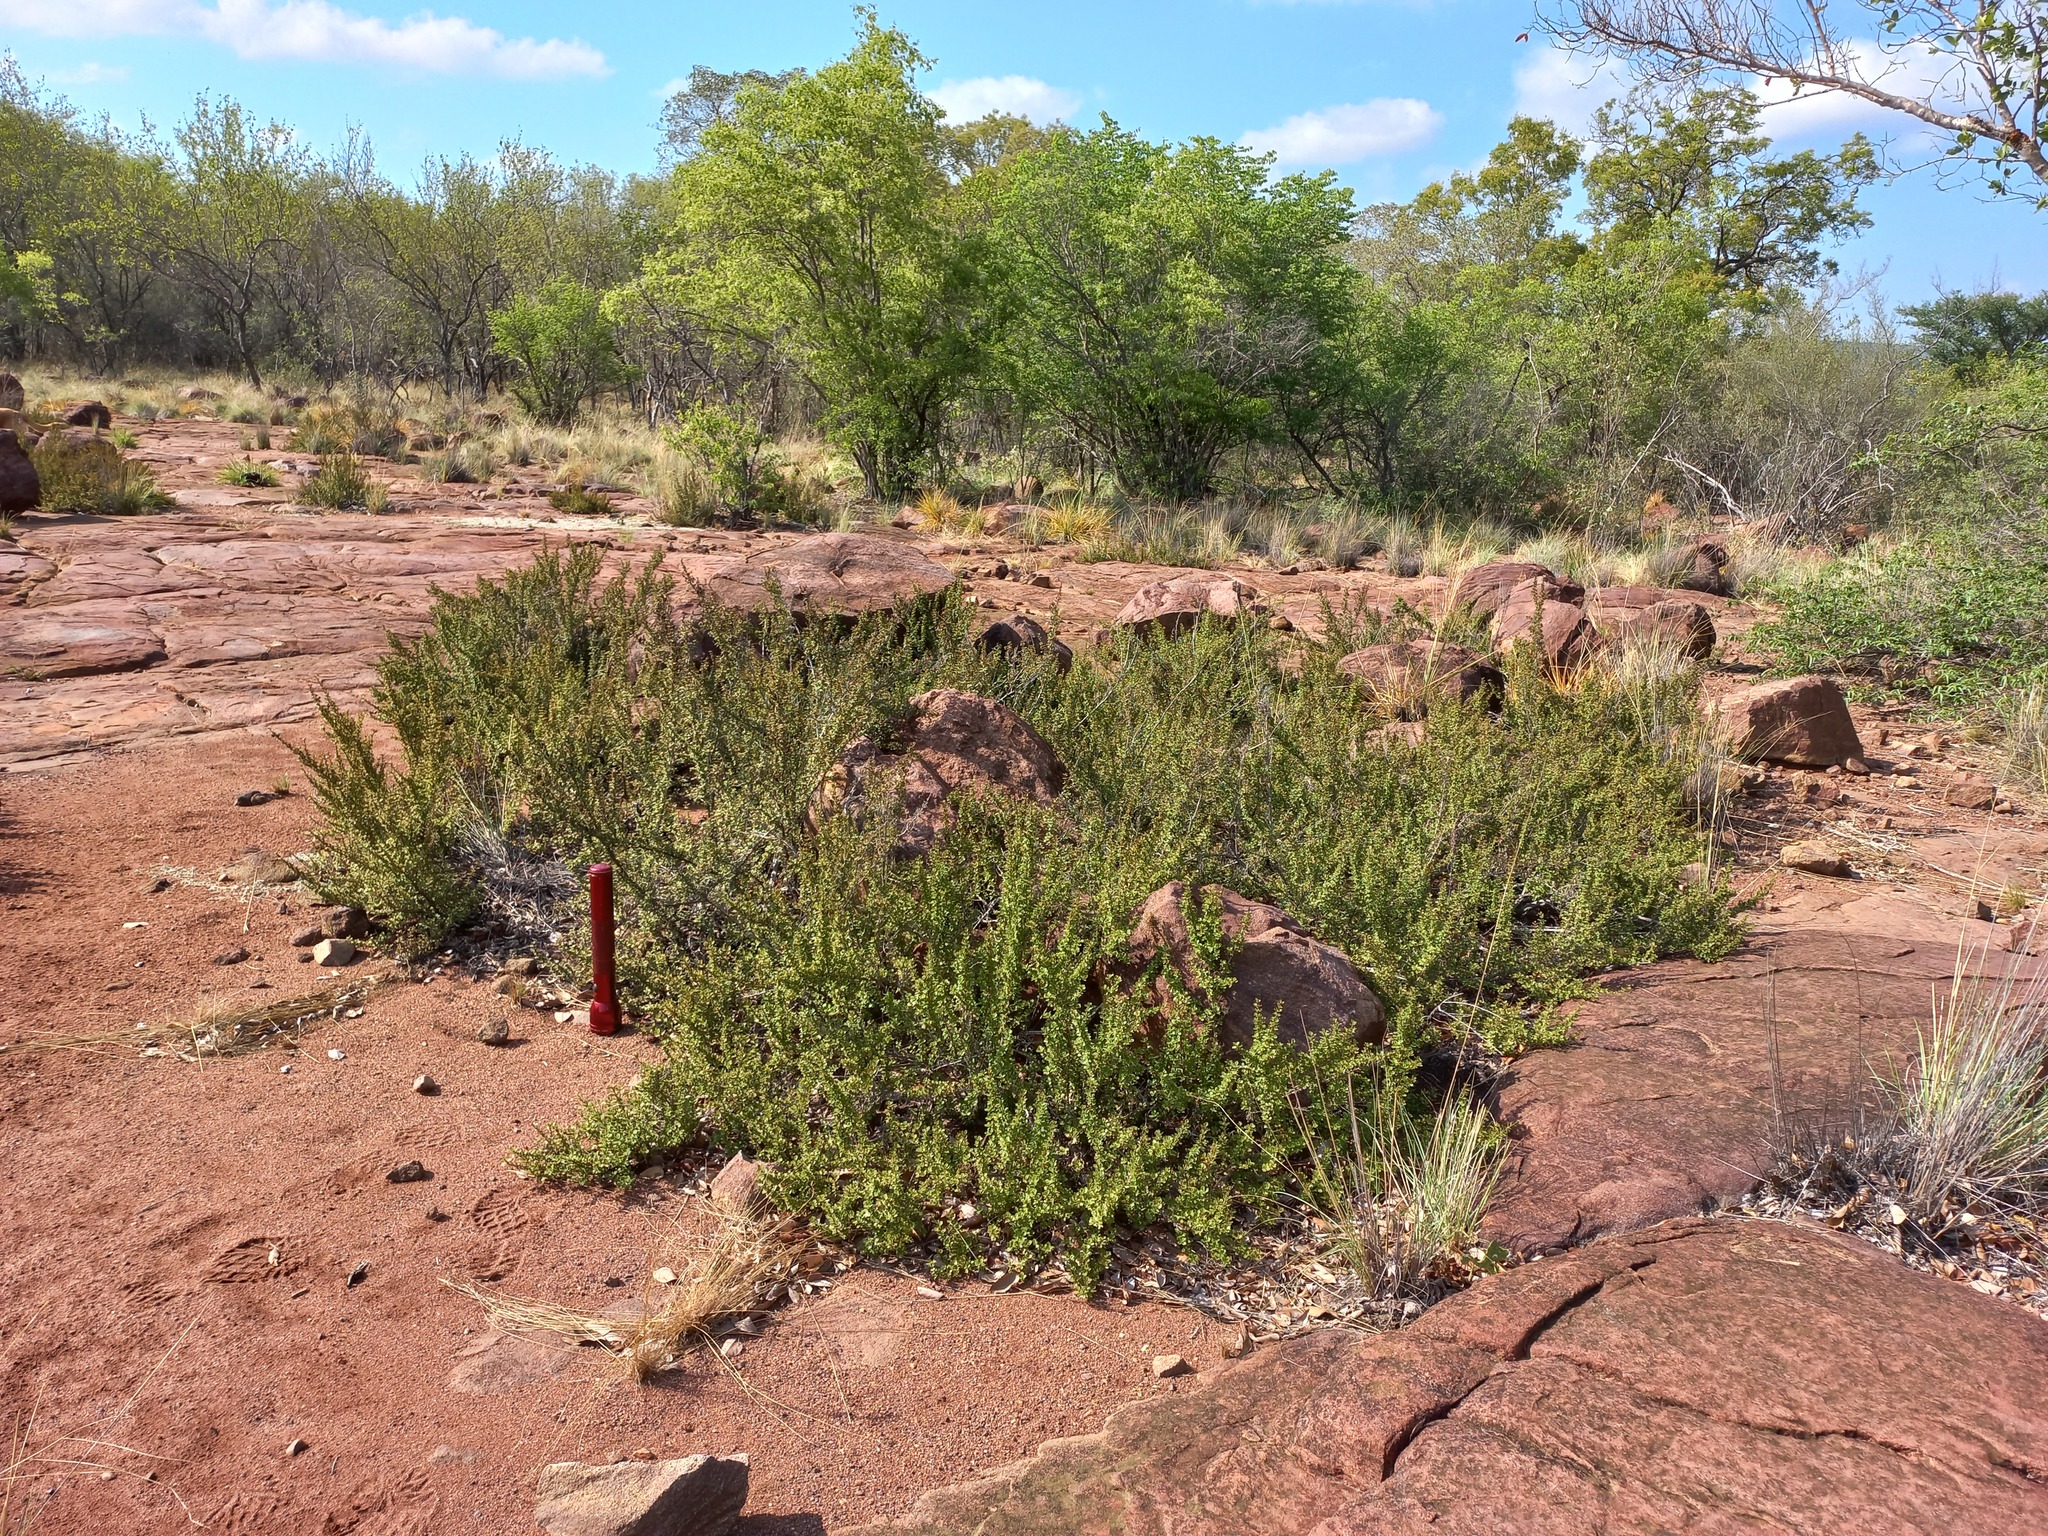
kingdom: Plantae
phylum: Tracheophyta
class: Magnoliopsida
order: Gunnerales
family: Myrothamnaceae
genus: Myrothamnus
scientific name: Myrothamnus flabellifolius
